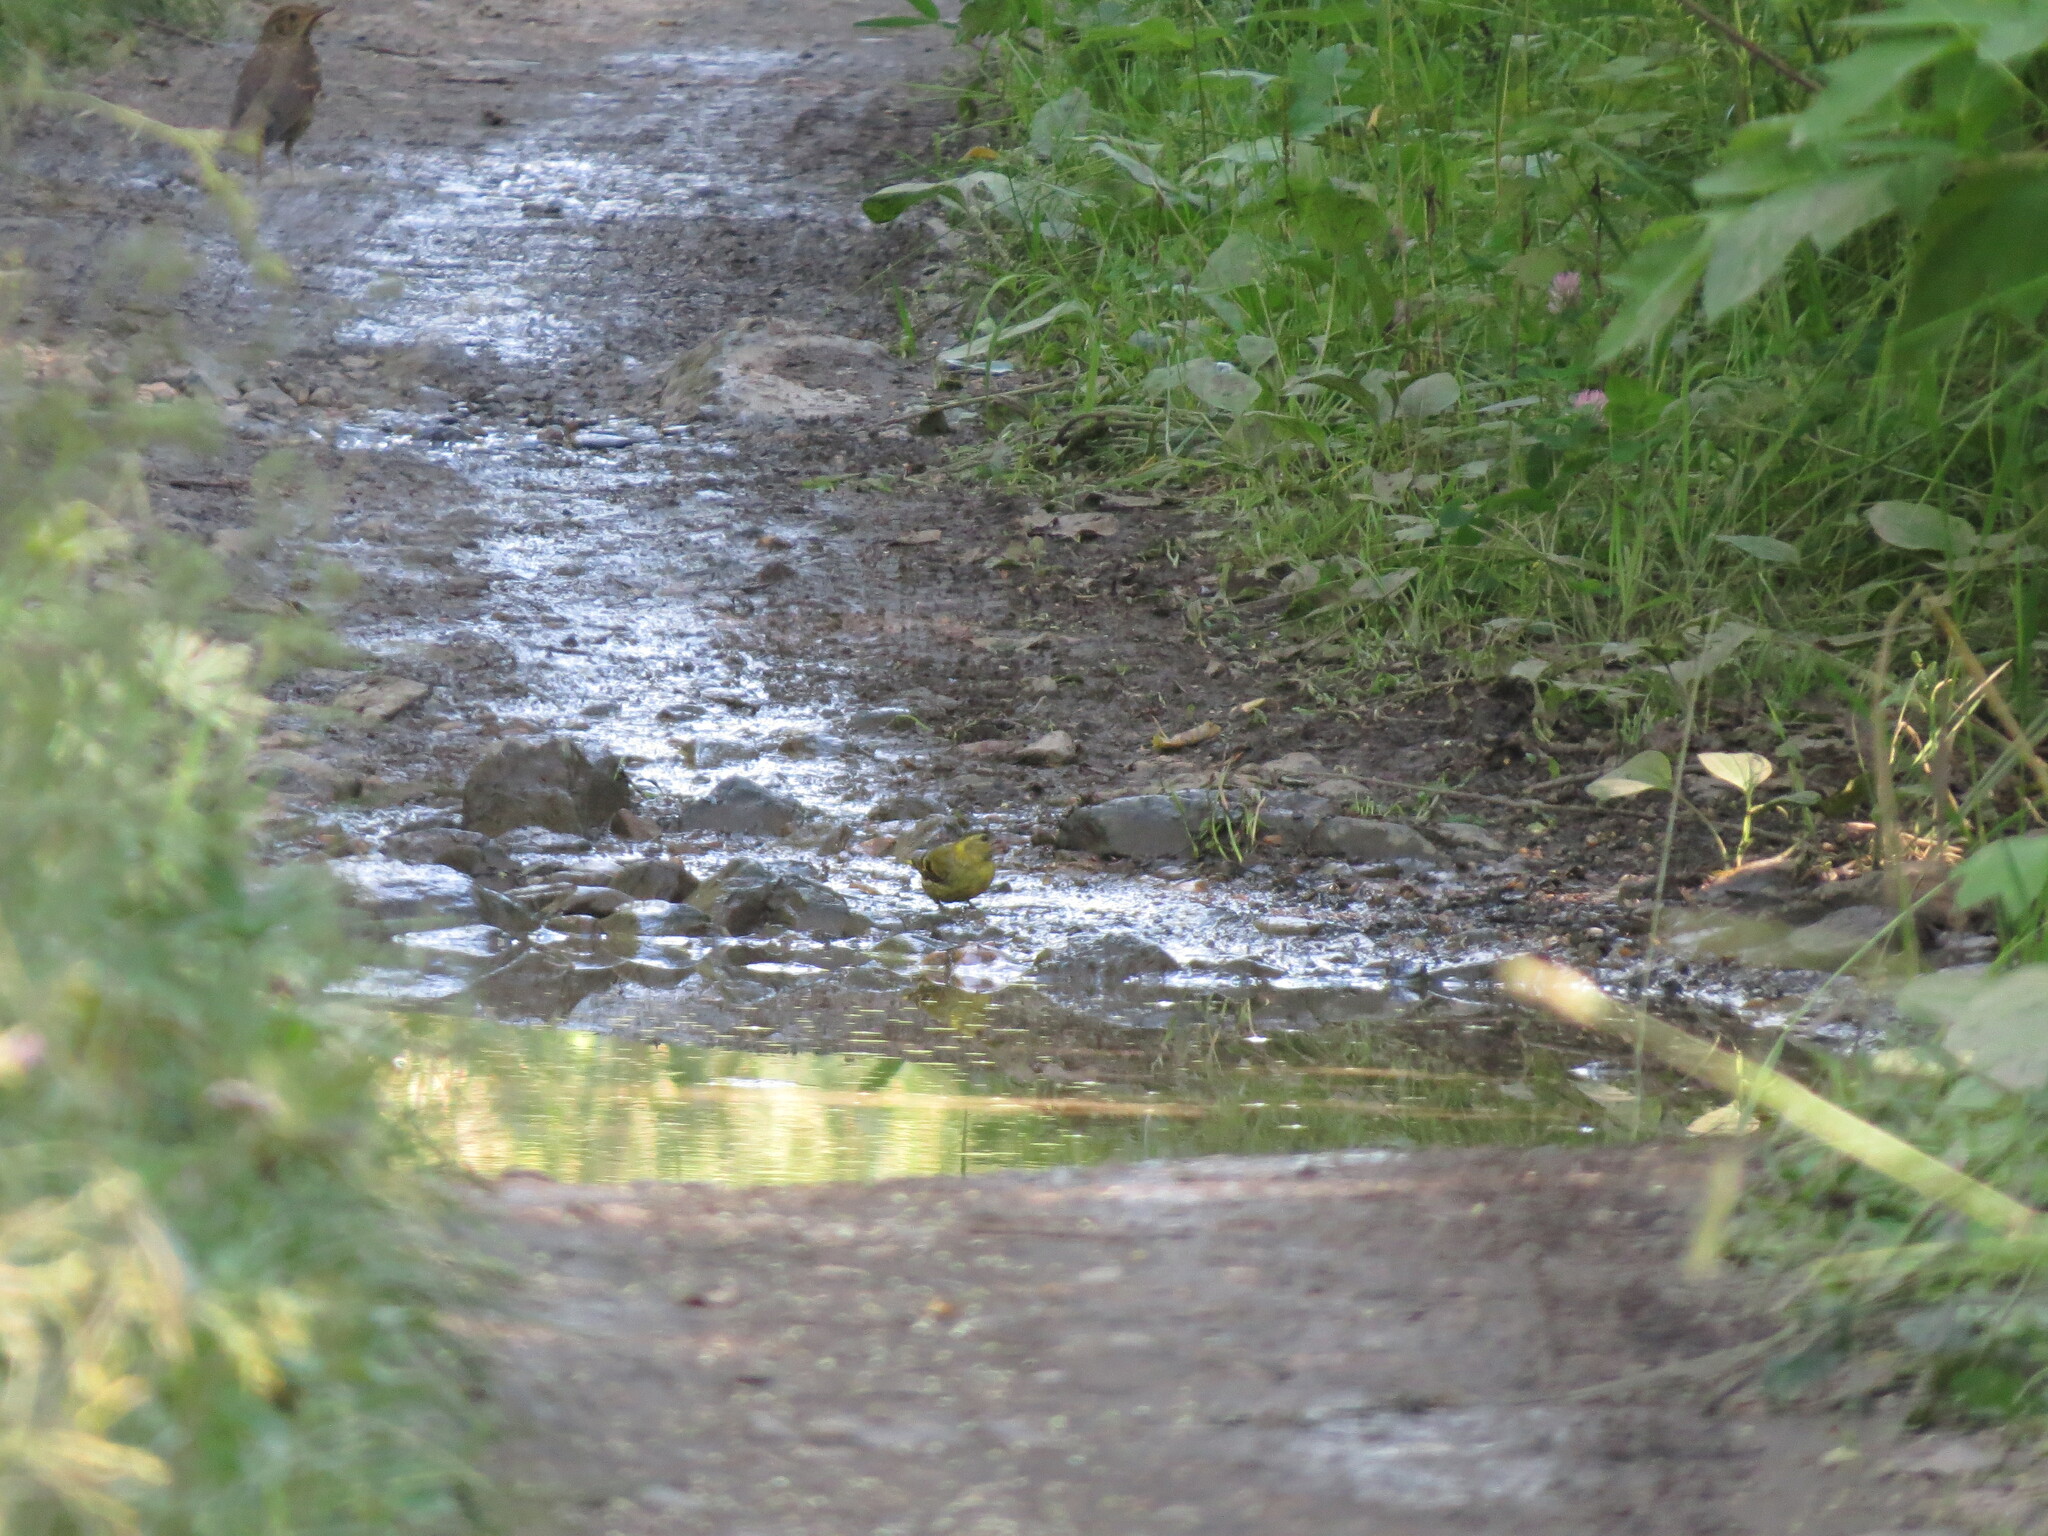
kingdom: Animalia
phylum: Chordata
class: Aves
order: Passeriformes
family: Fringillidae
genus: Spinus
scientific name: Spinus spinus
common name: Eurasian siskin
